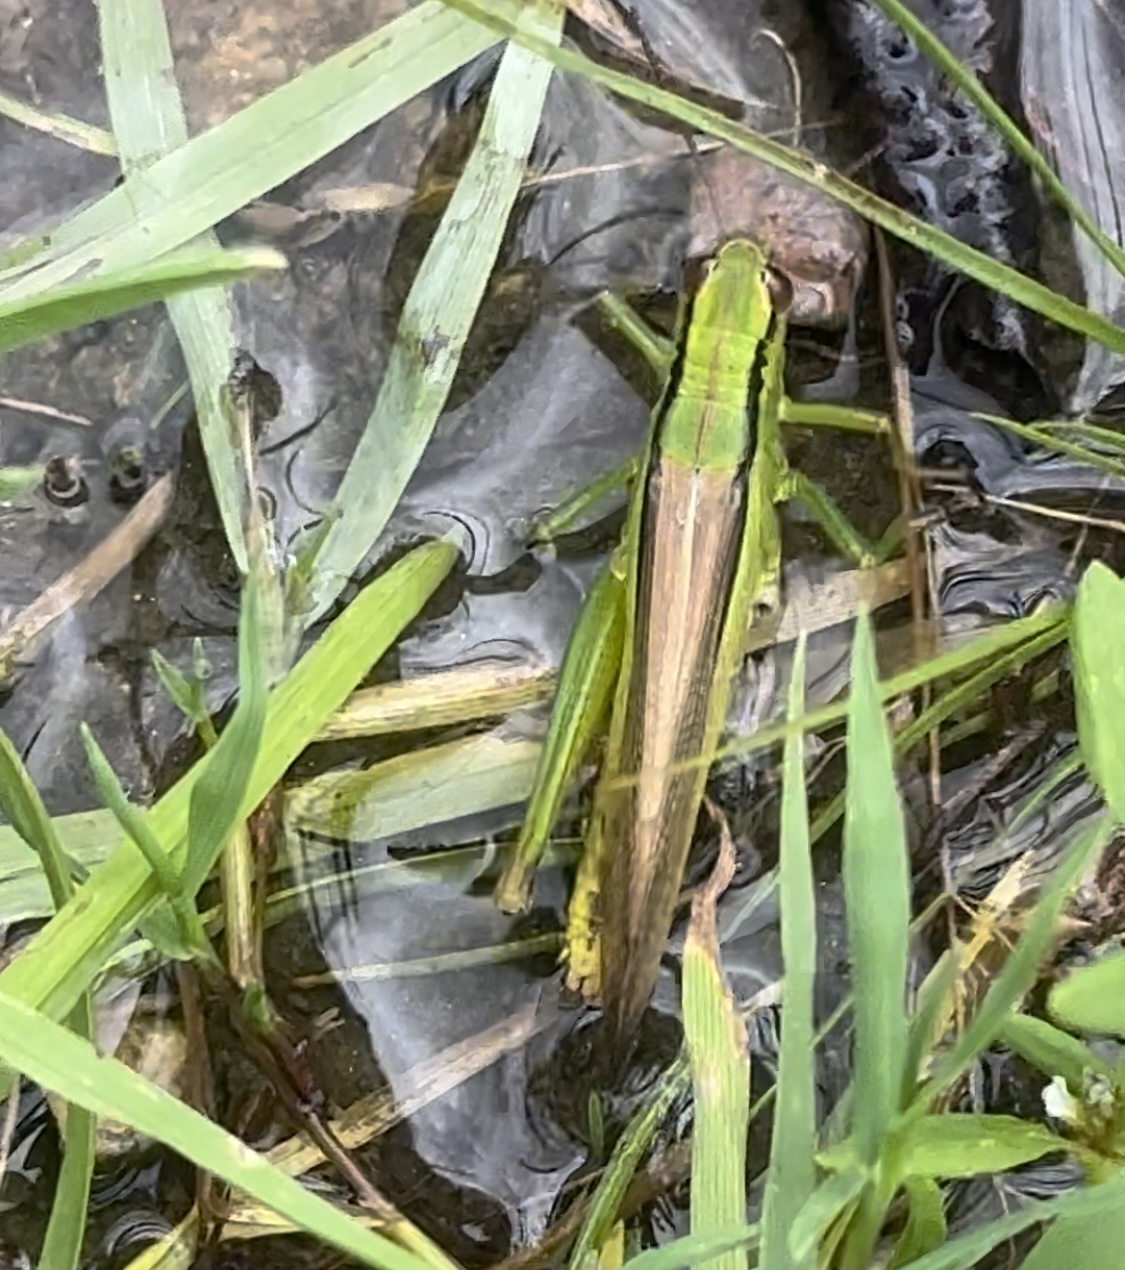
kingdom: Animalia
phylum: Arthropoda
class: Insecta
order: Orthoptera
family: Acrididae
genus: Mecostethus
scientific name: Mecostethus parapleurus
